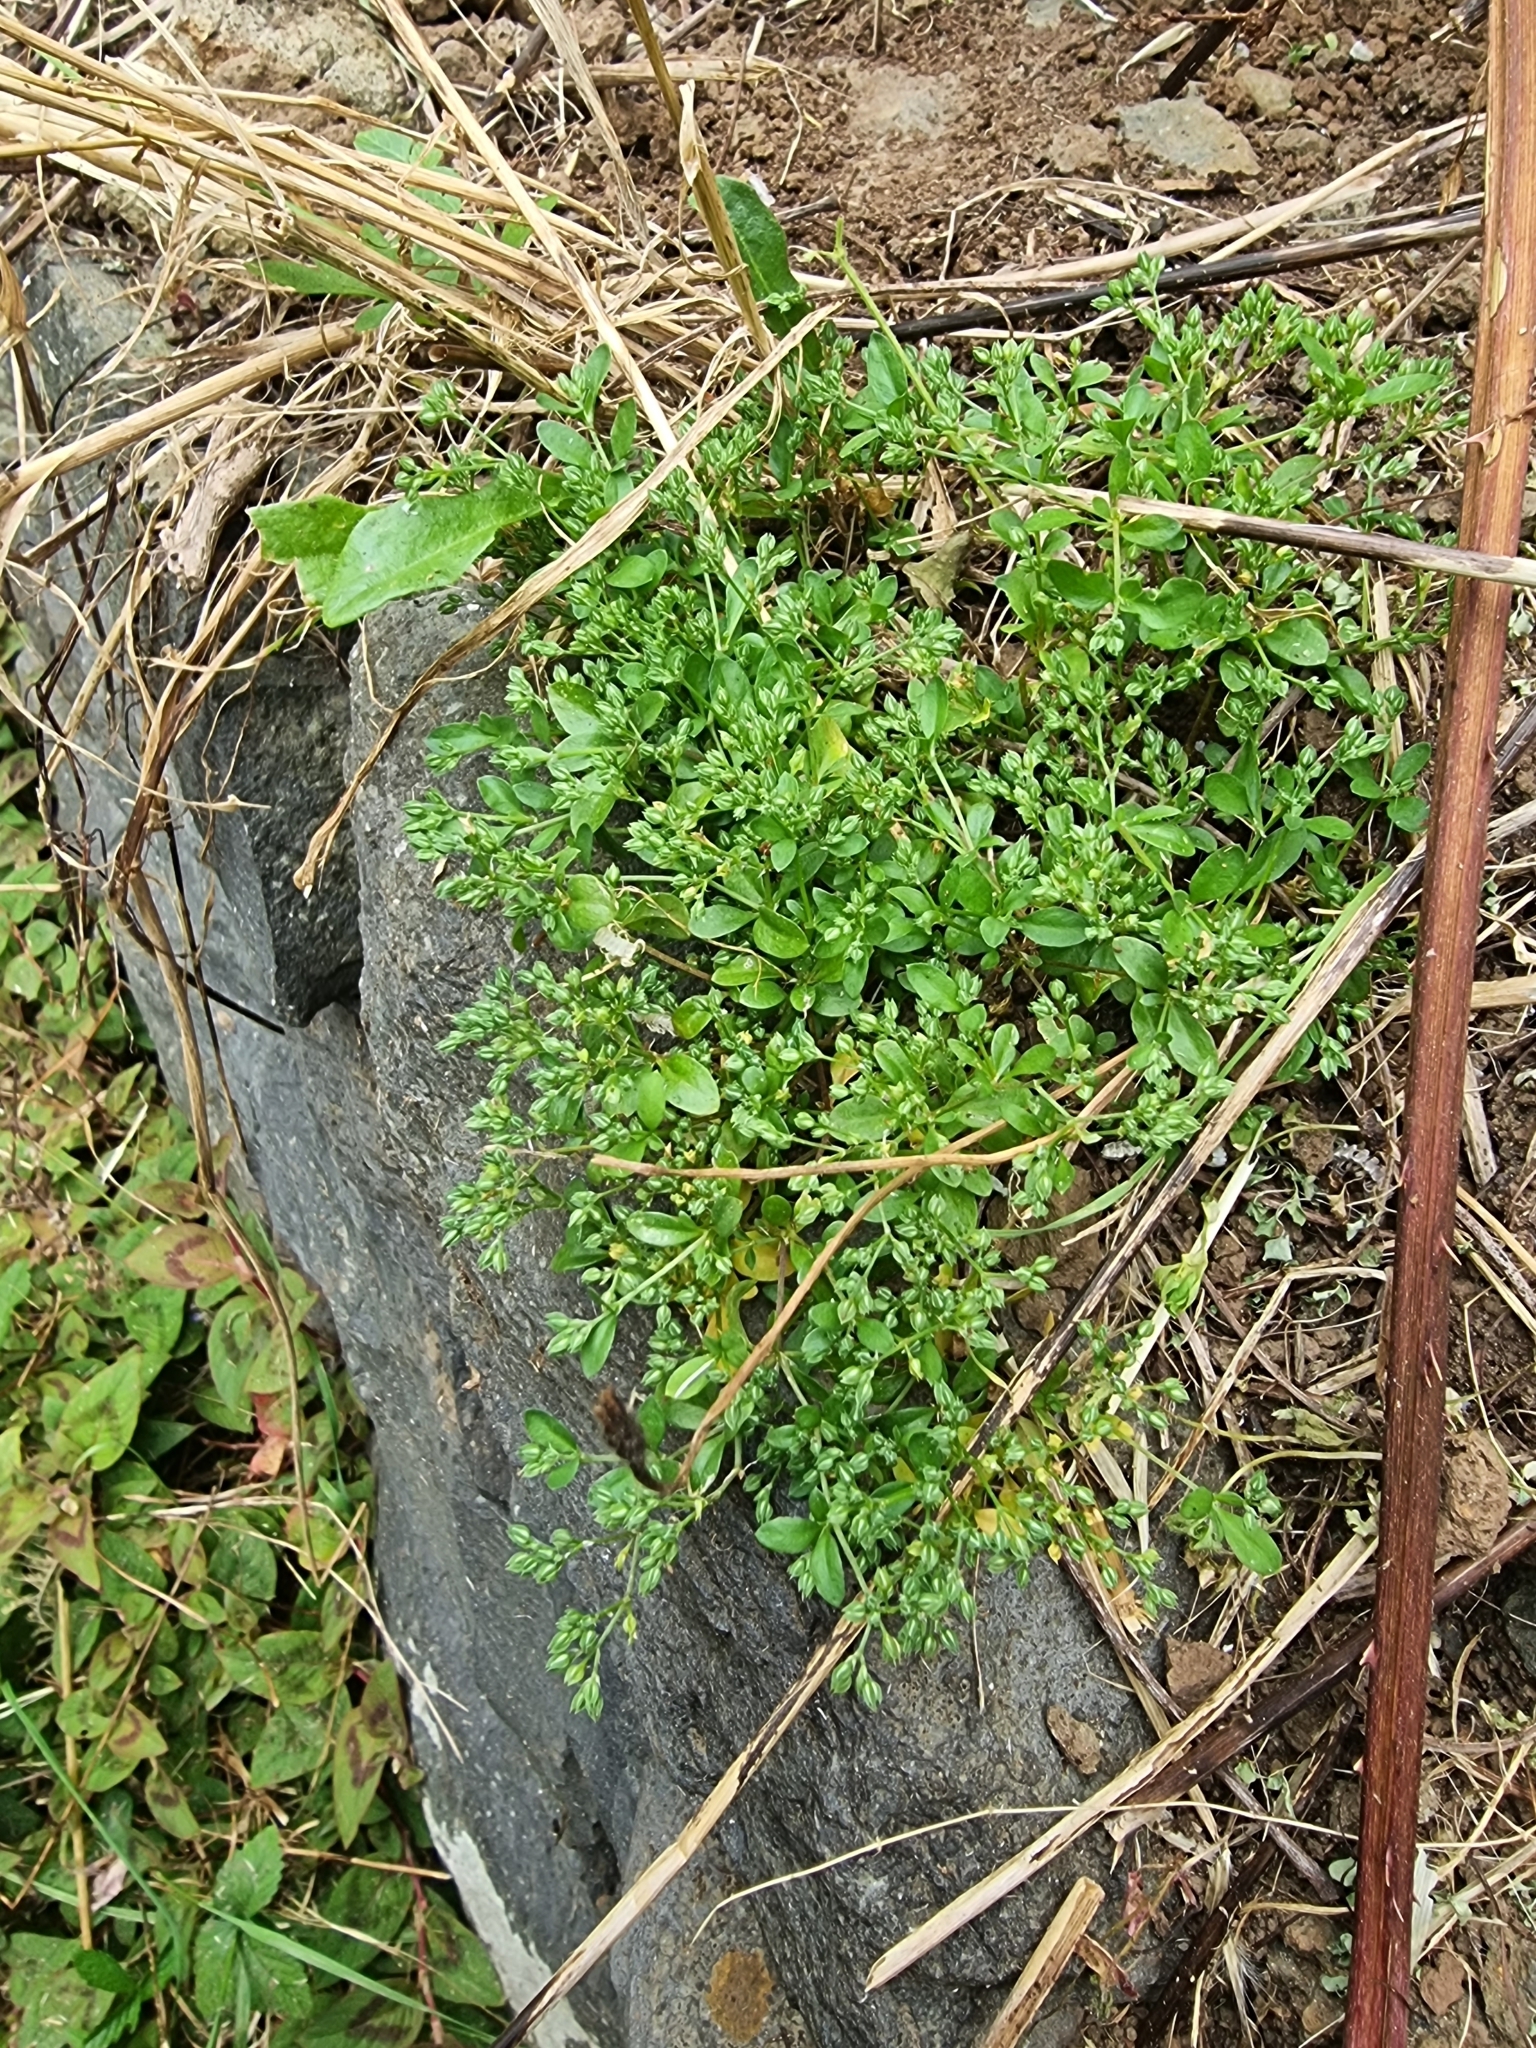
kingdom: Plantae
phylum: Tracheophyta
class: Magnoliopsida
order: Caryophyllales
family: Caryophyllaceae
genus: Polycarpon
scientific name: Polycarpon tetraphyllum
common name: Four-leaved all-seed
